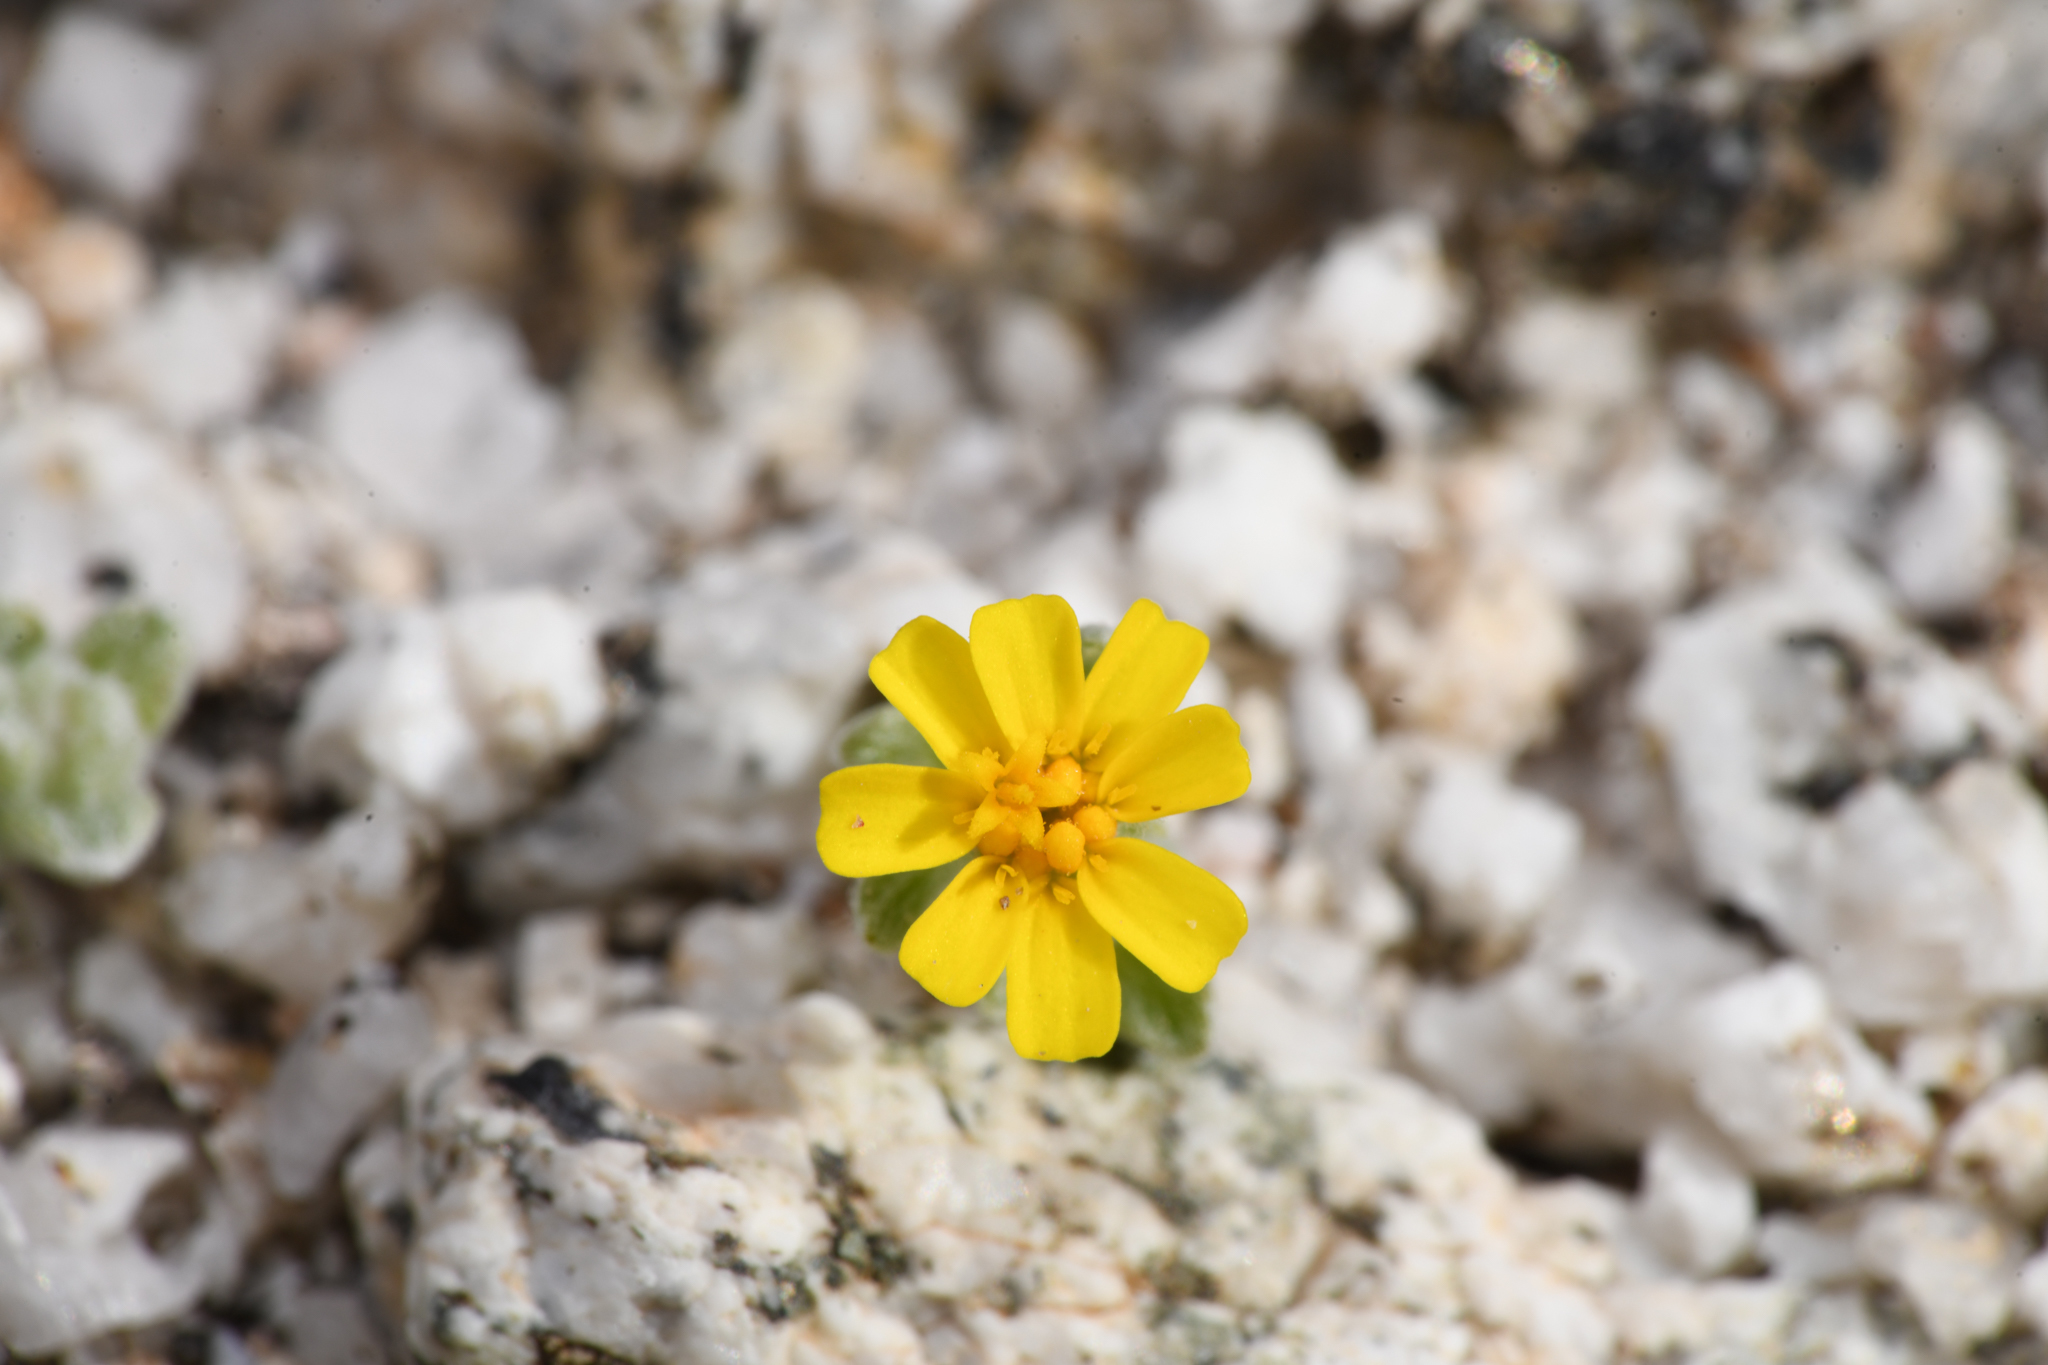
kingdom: Plantae
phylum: Tracheophyta
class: Magnoliopsida
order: Asterales
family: Asteraceae
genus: Eriophyllum
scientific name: Eriophyllum wallacei
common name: Wallace's woolly daisy
